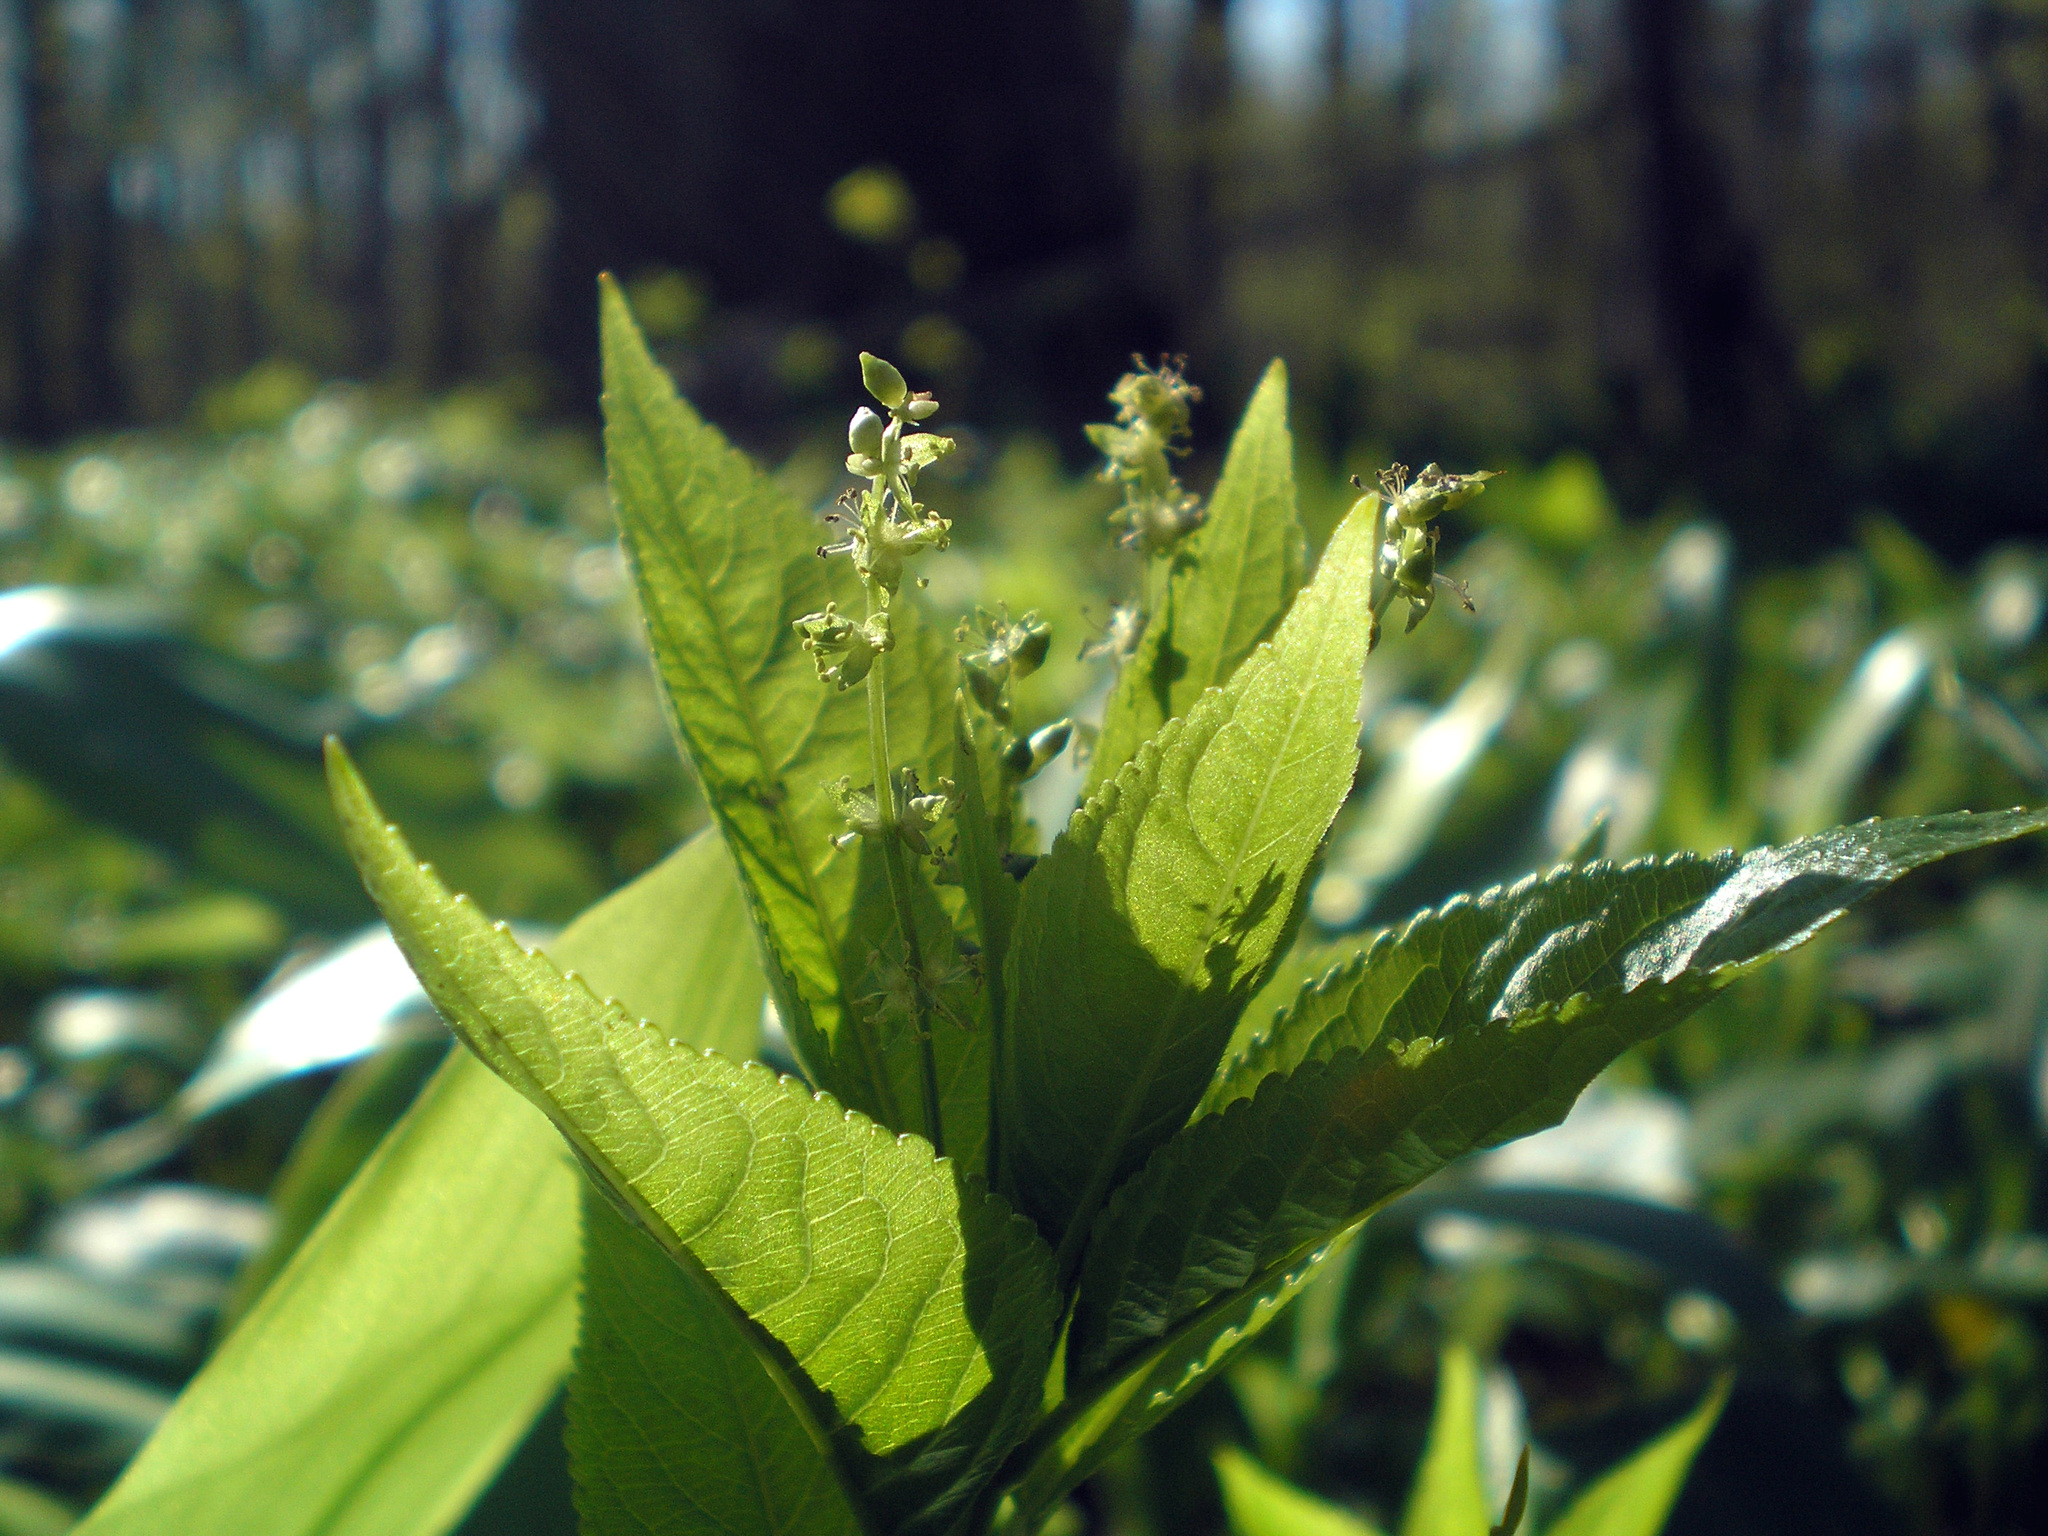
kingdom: Plantae
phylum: Tracheophyta
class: Magnoliopsida
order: Malpighiales
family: Euphorbiaceae
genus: Mercurialis
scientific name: Mercurialis perennis
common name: Dog mercury
